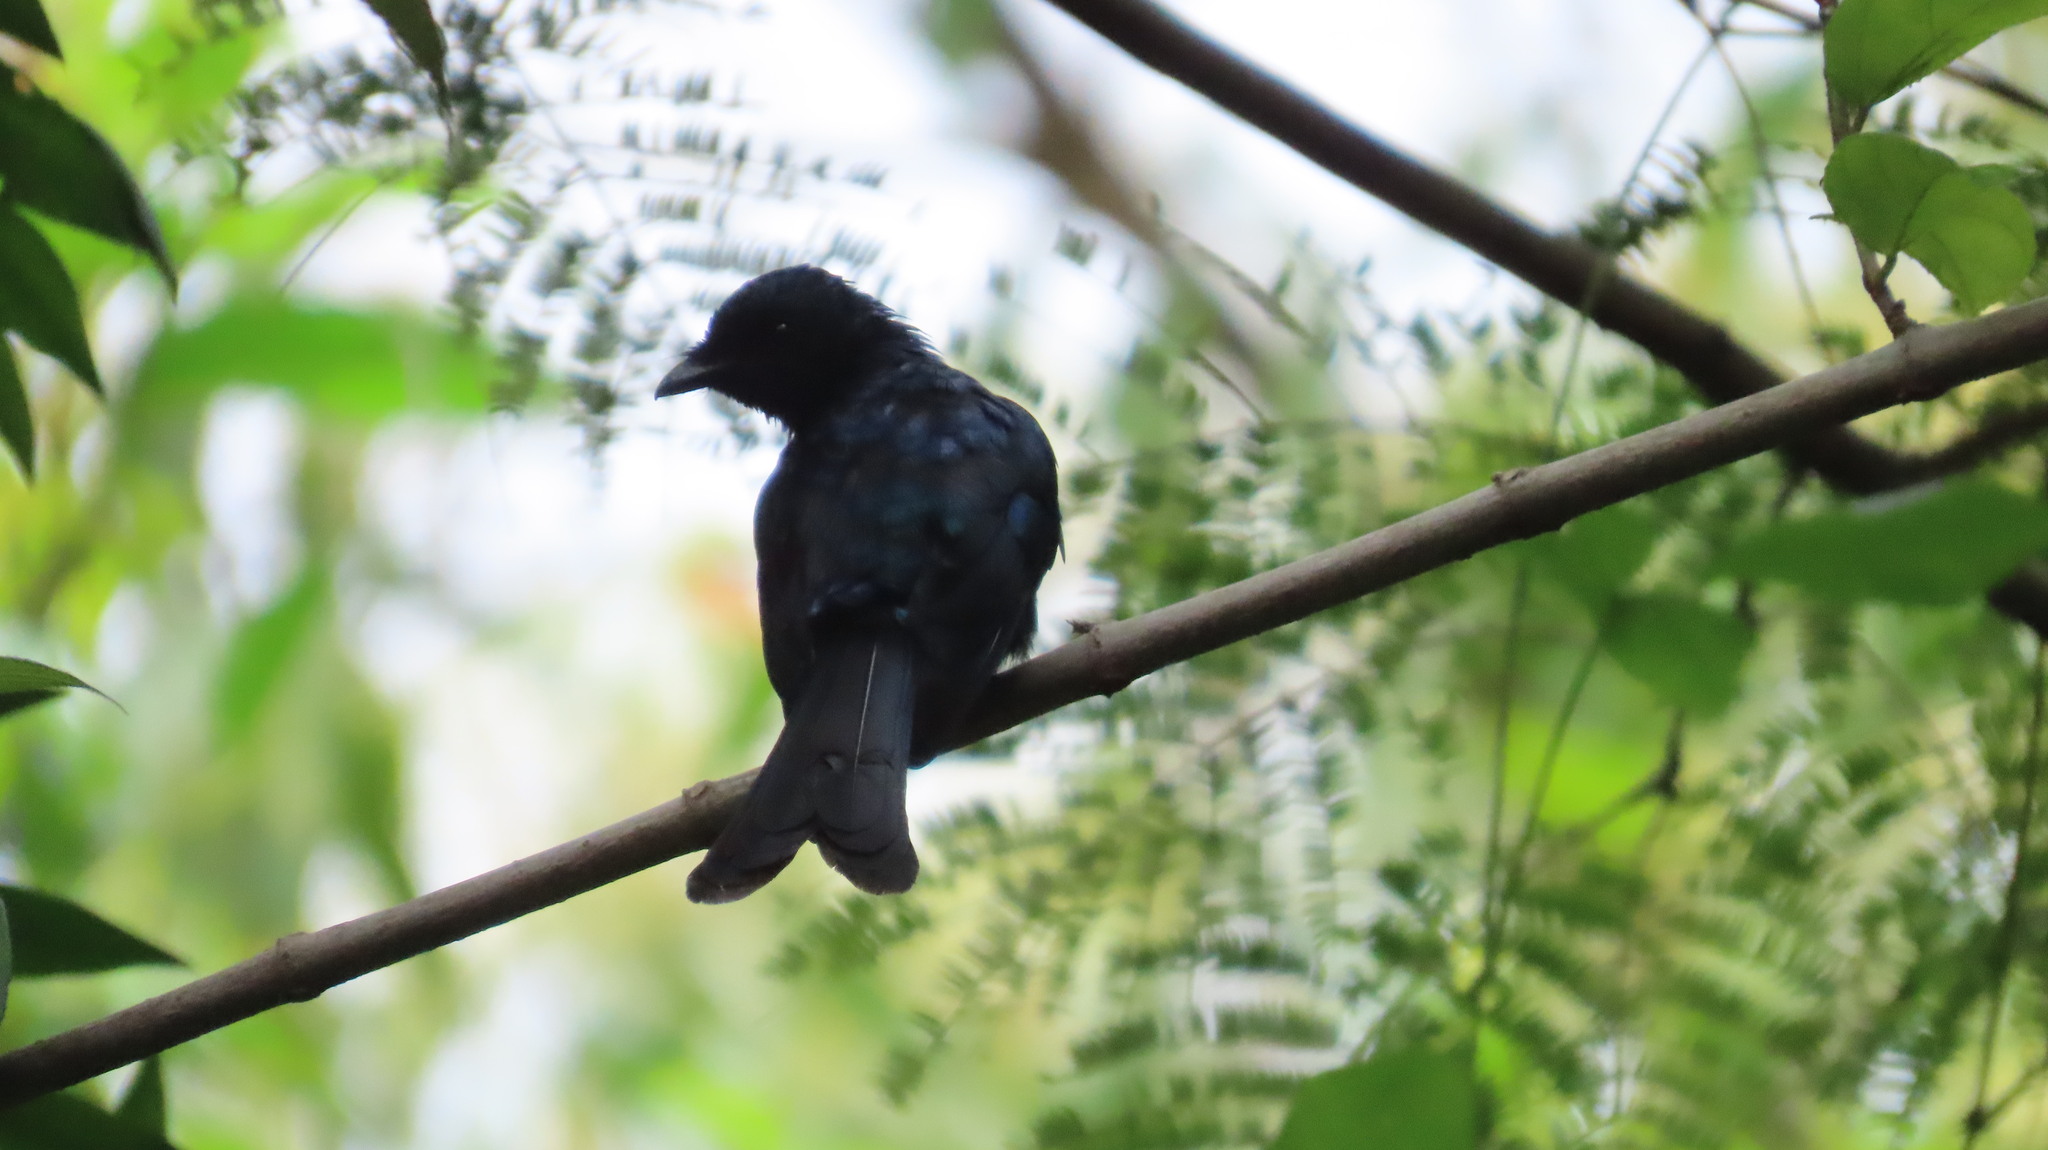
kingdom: Animalia
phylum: Chordata
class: Aves
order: Passeriformes
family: Dicruridae
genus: Dicrurus
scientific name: Dicrurus aeneus
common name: Bronzed drongo
